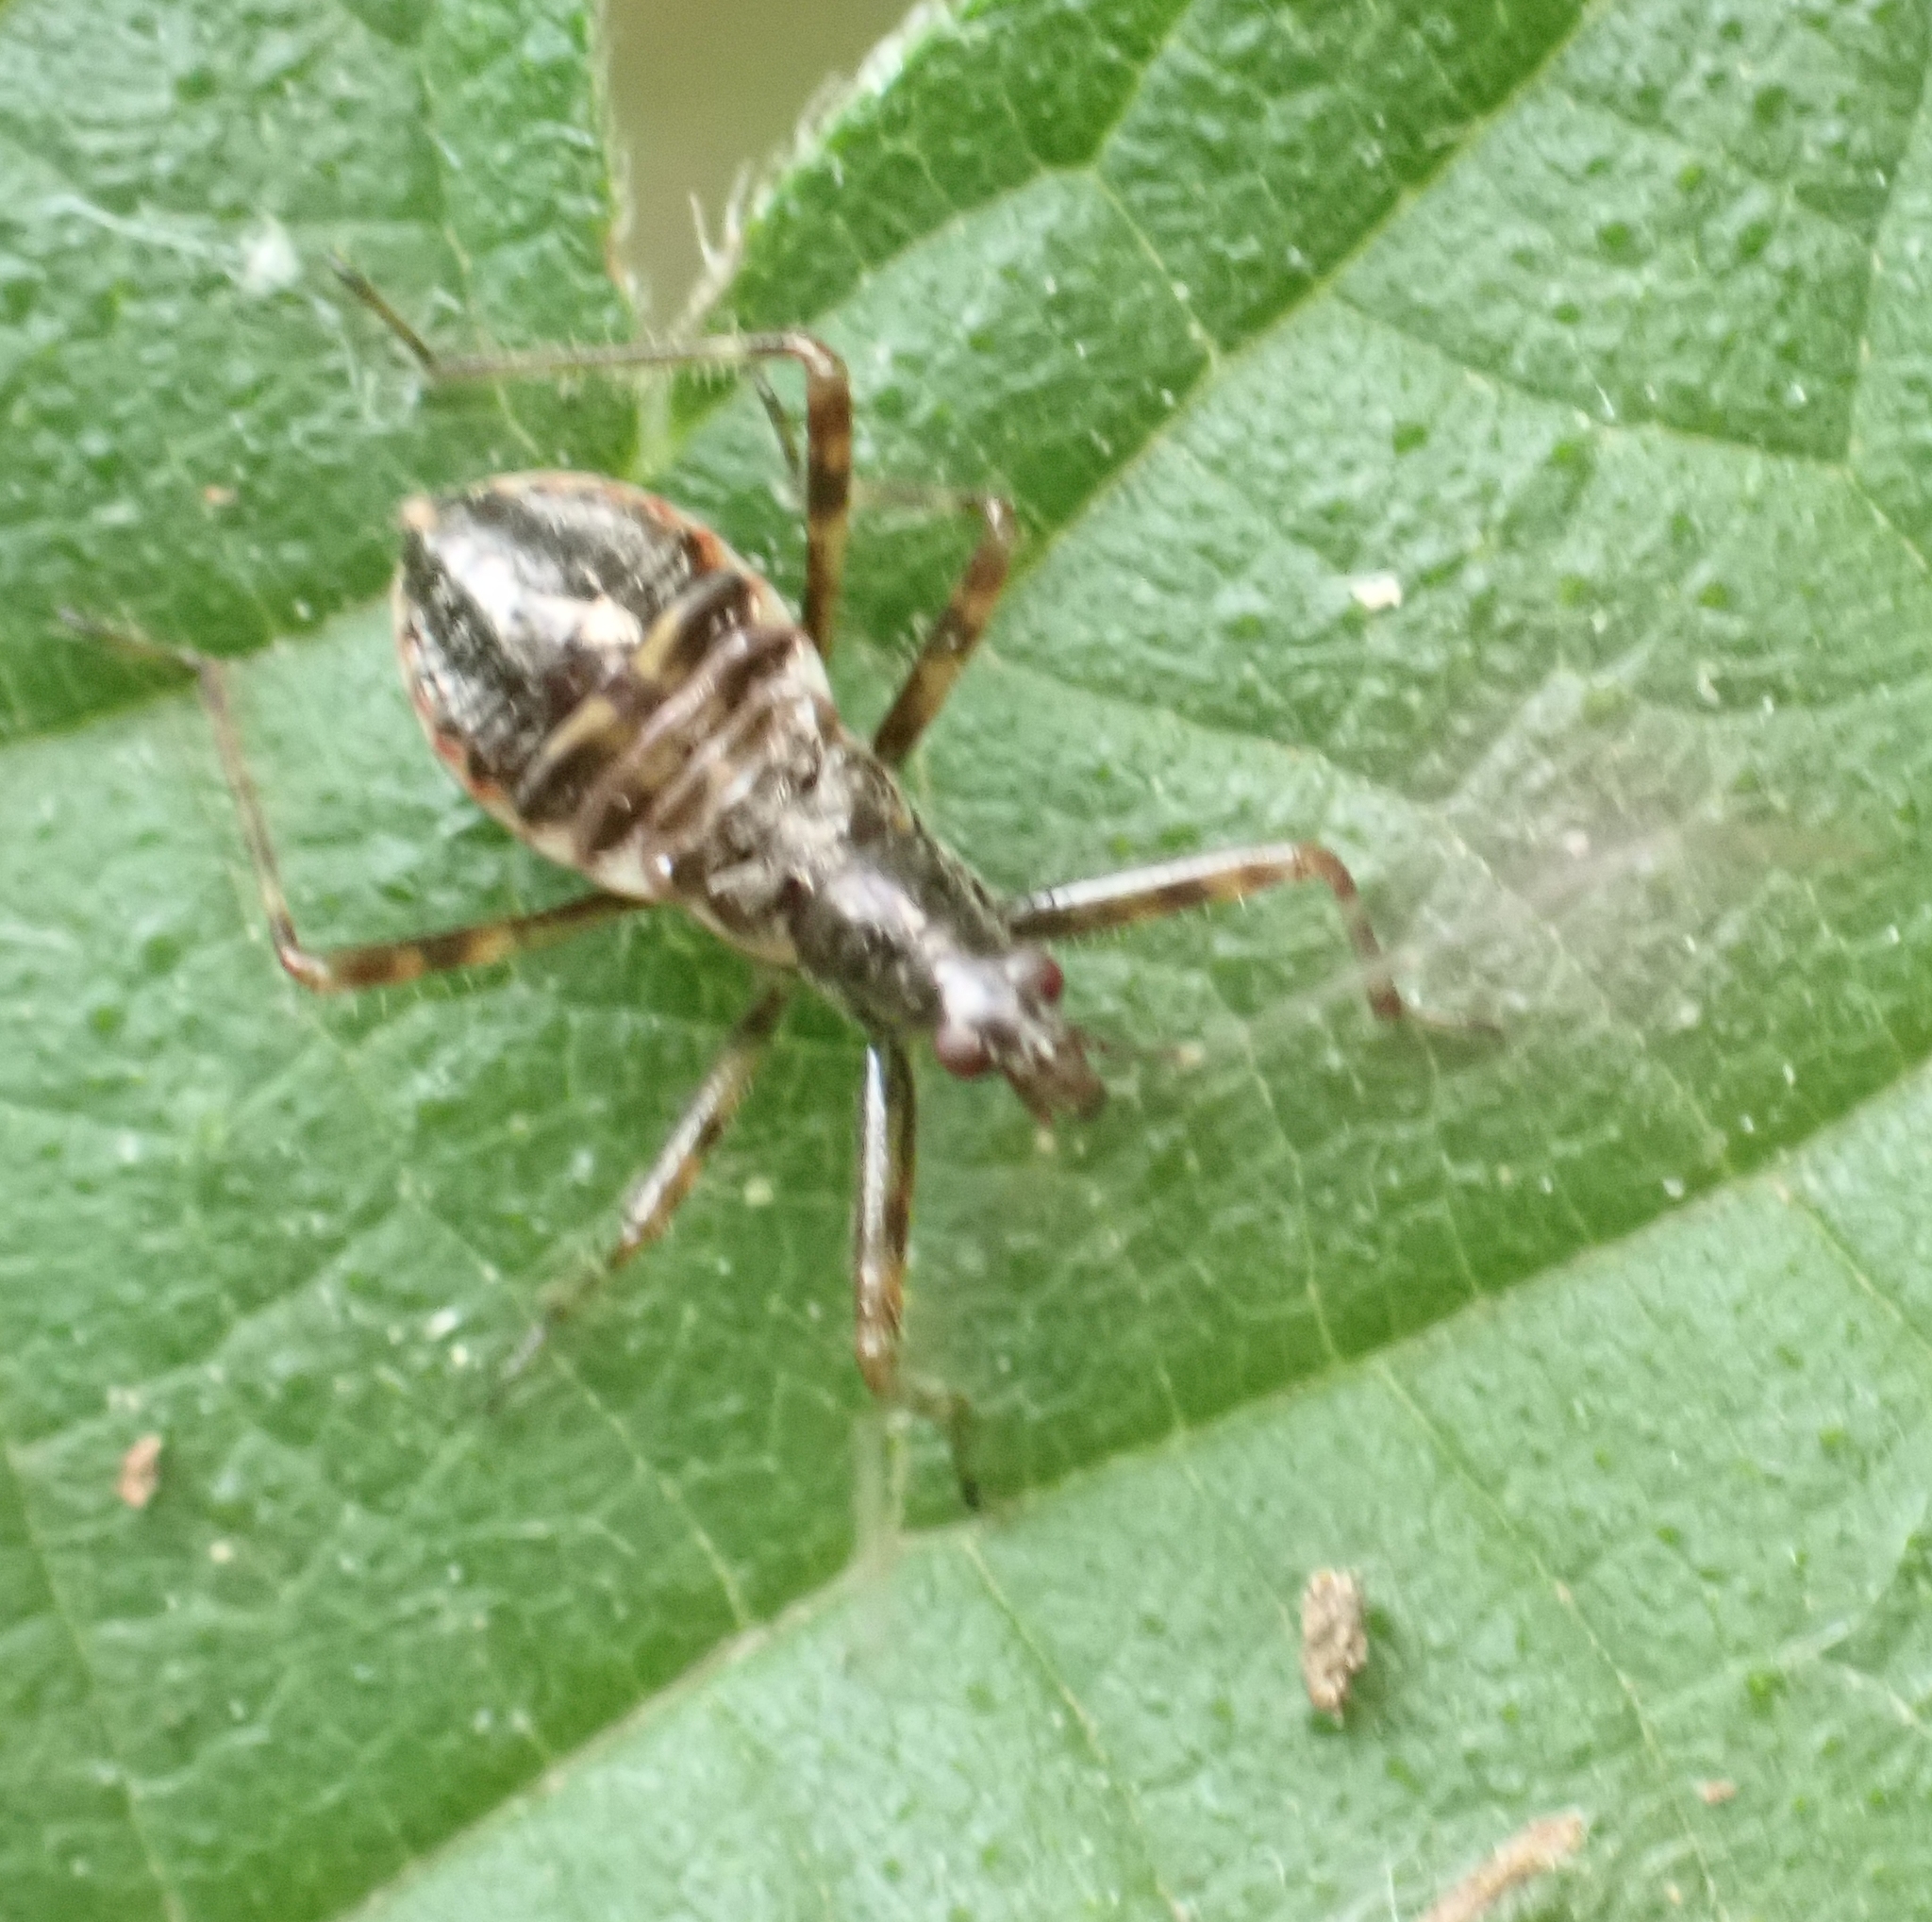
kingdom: Animalia
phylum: Arthropoda
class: Insecta
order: Hemiptera
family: Nabidae
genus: Himacerus
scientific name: Himacerus apterus
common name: Tree damsel bug
